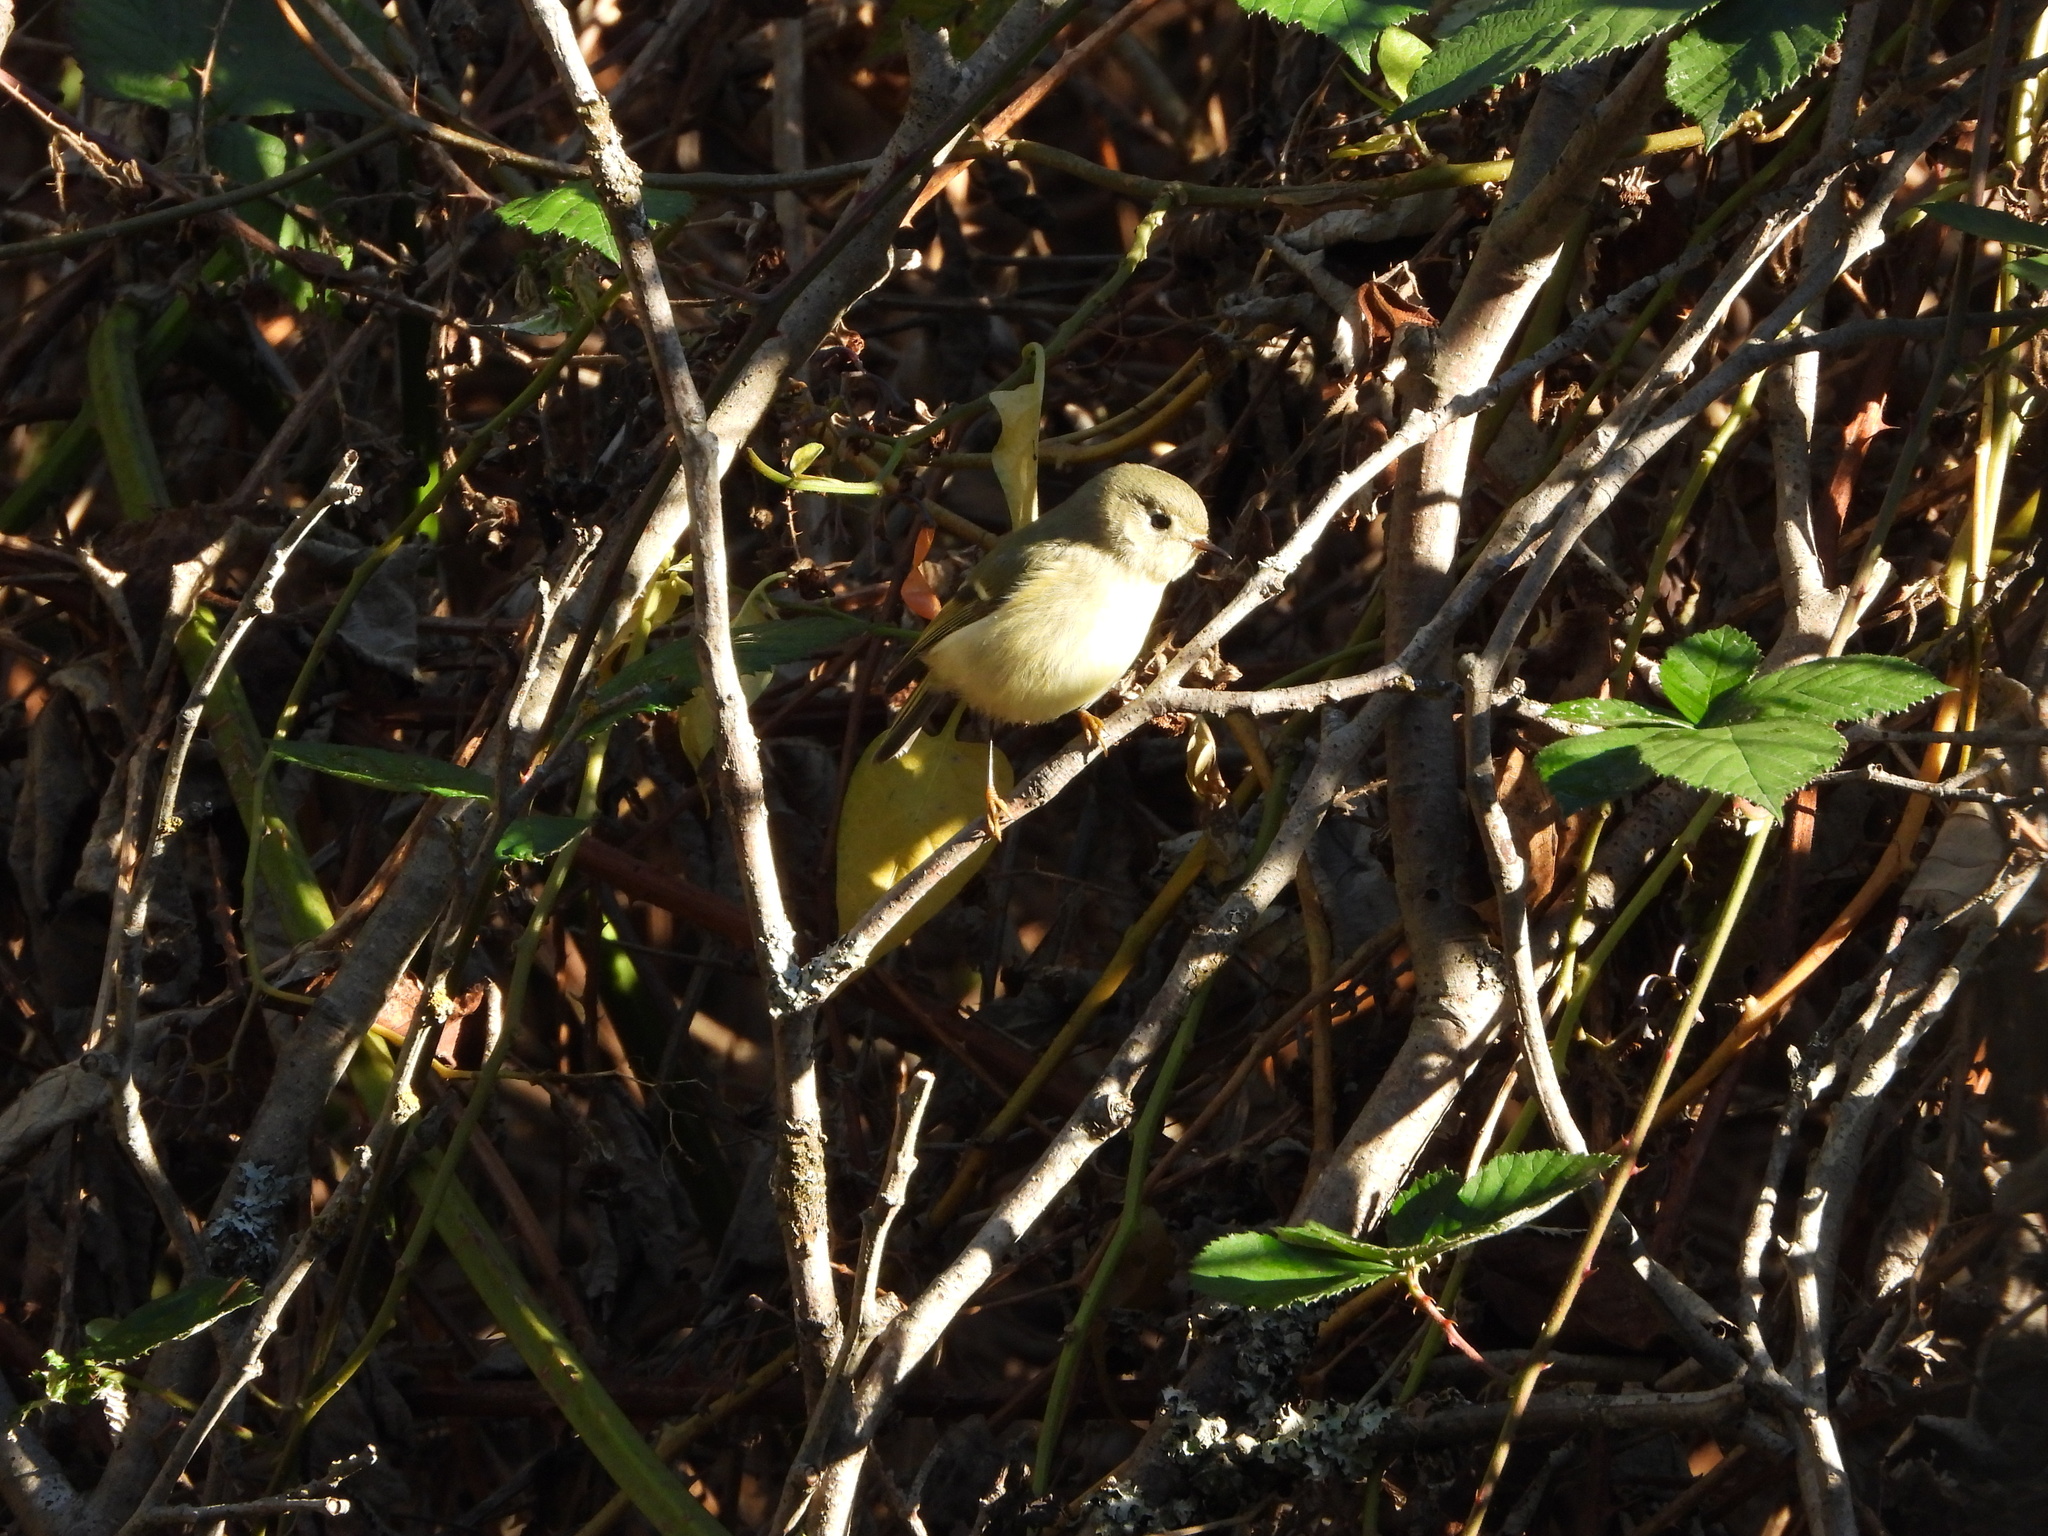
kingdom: Animalia
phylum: Chordata
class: Aves
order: Passeriformes
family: Regulidae
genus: Regulus
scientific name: Regulus calendula
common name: Ruby-crowned kinglet
